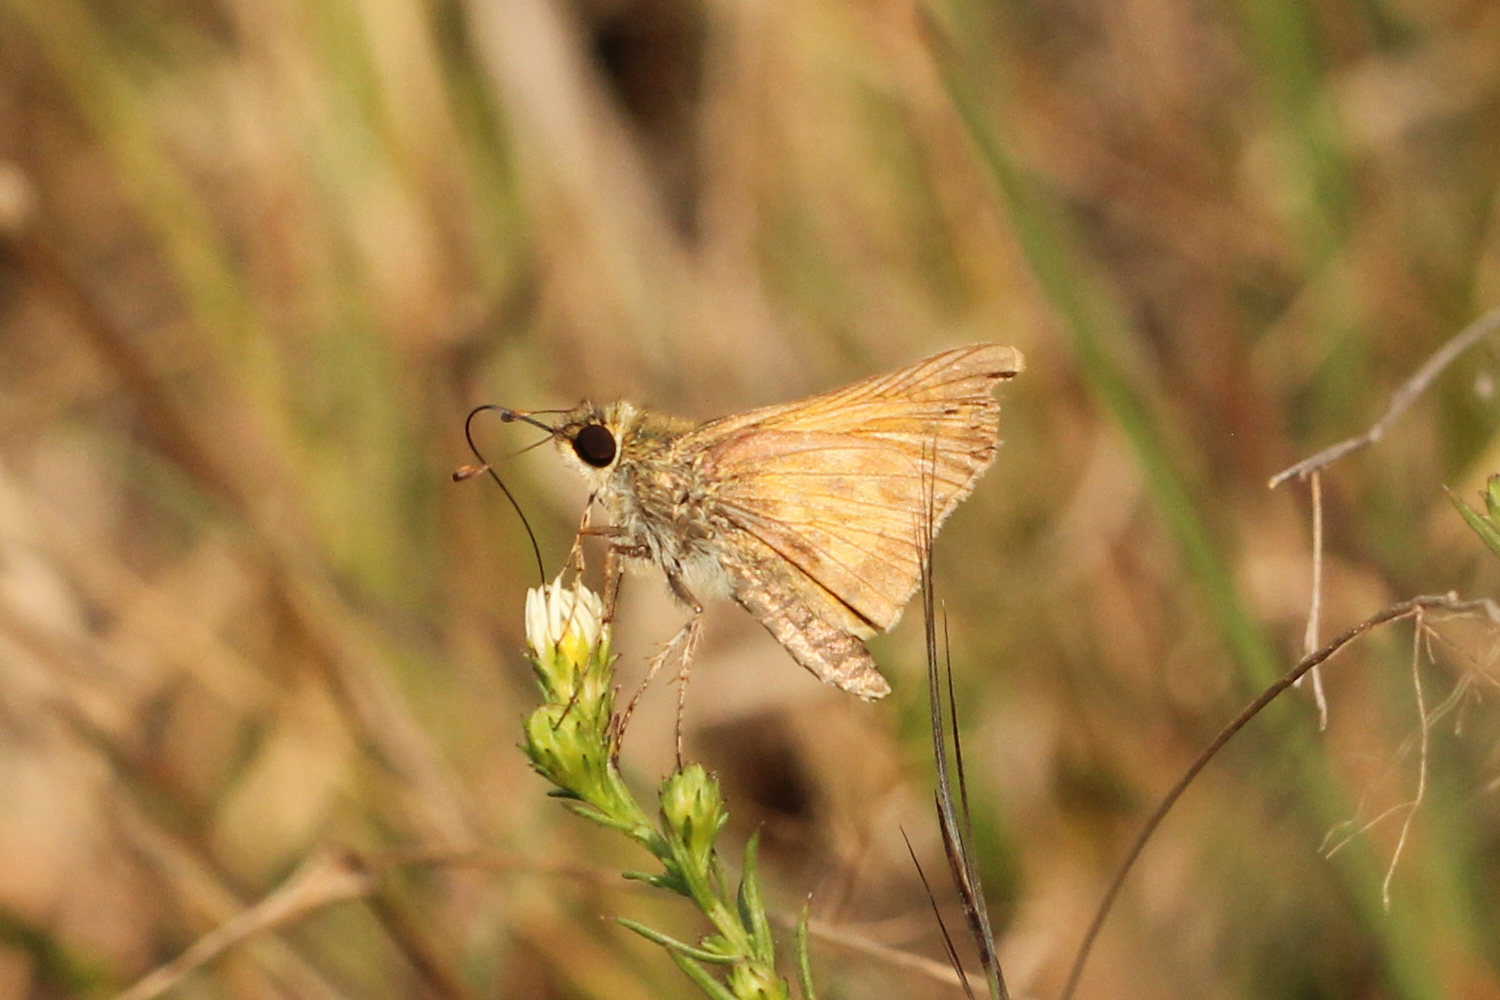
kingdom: Animalia
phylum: Arthropoda
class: Insecta
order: Lepidoptera
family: Hesperiidae
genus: Atalopedes
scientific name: Atalopedes
